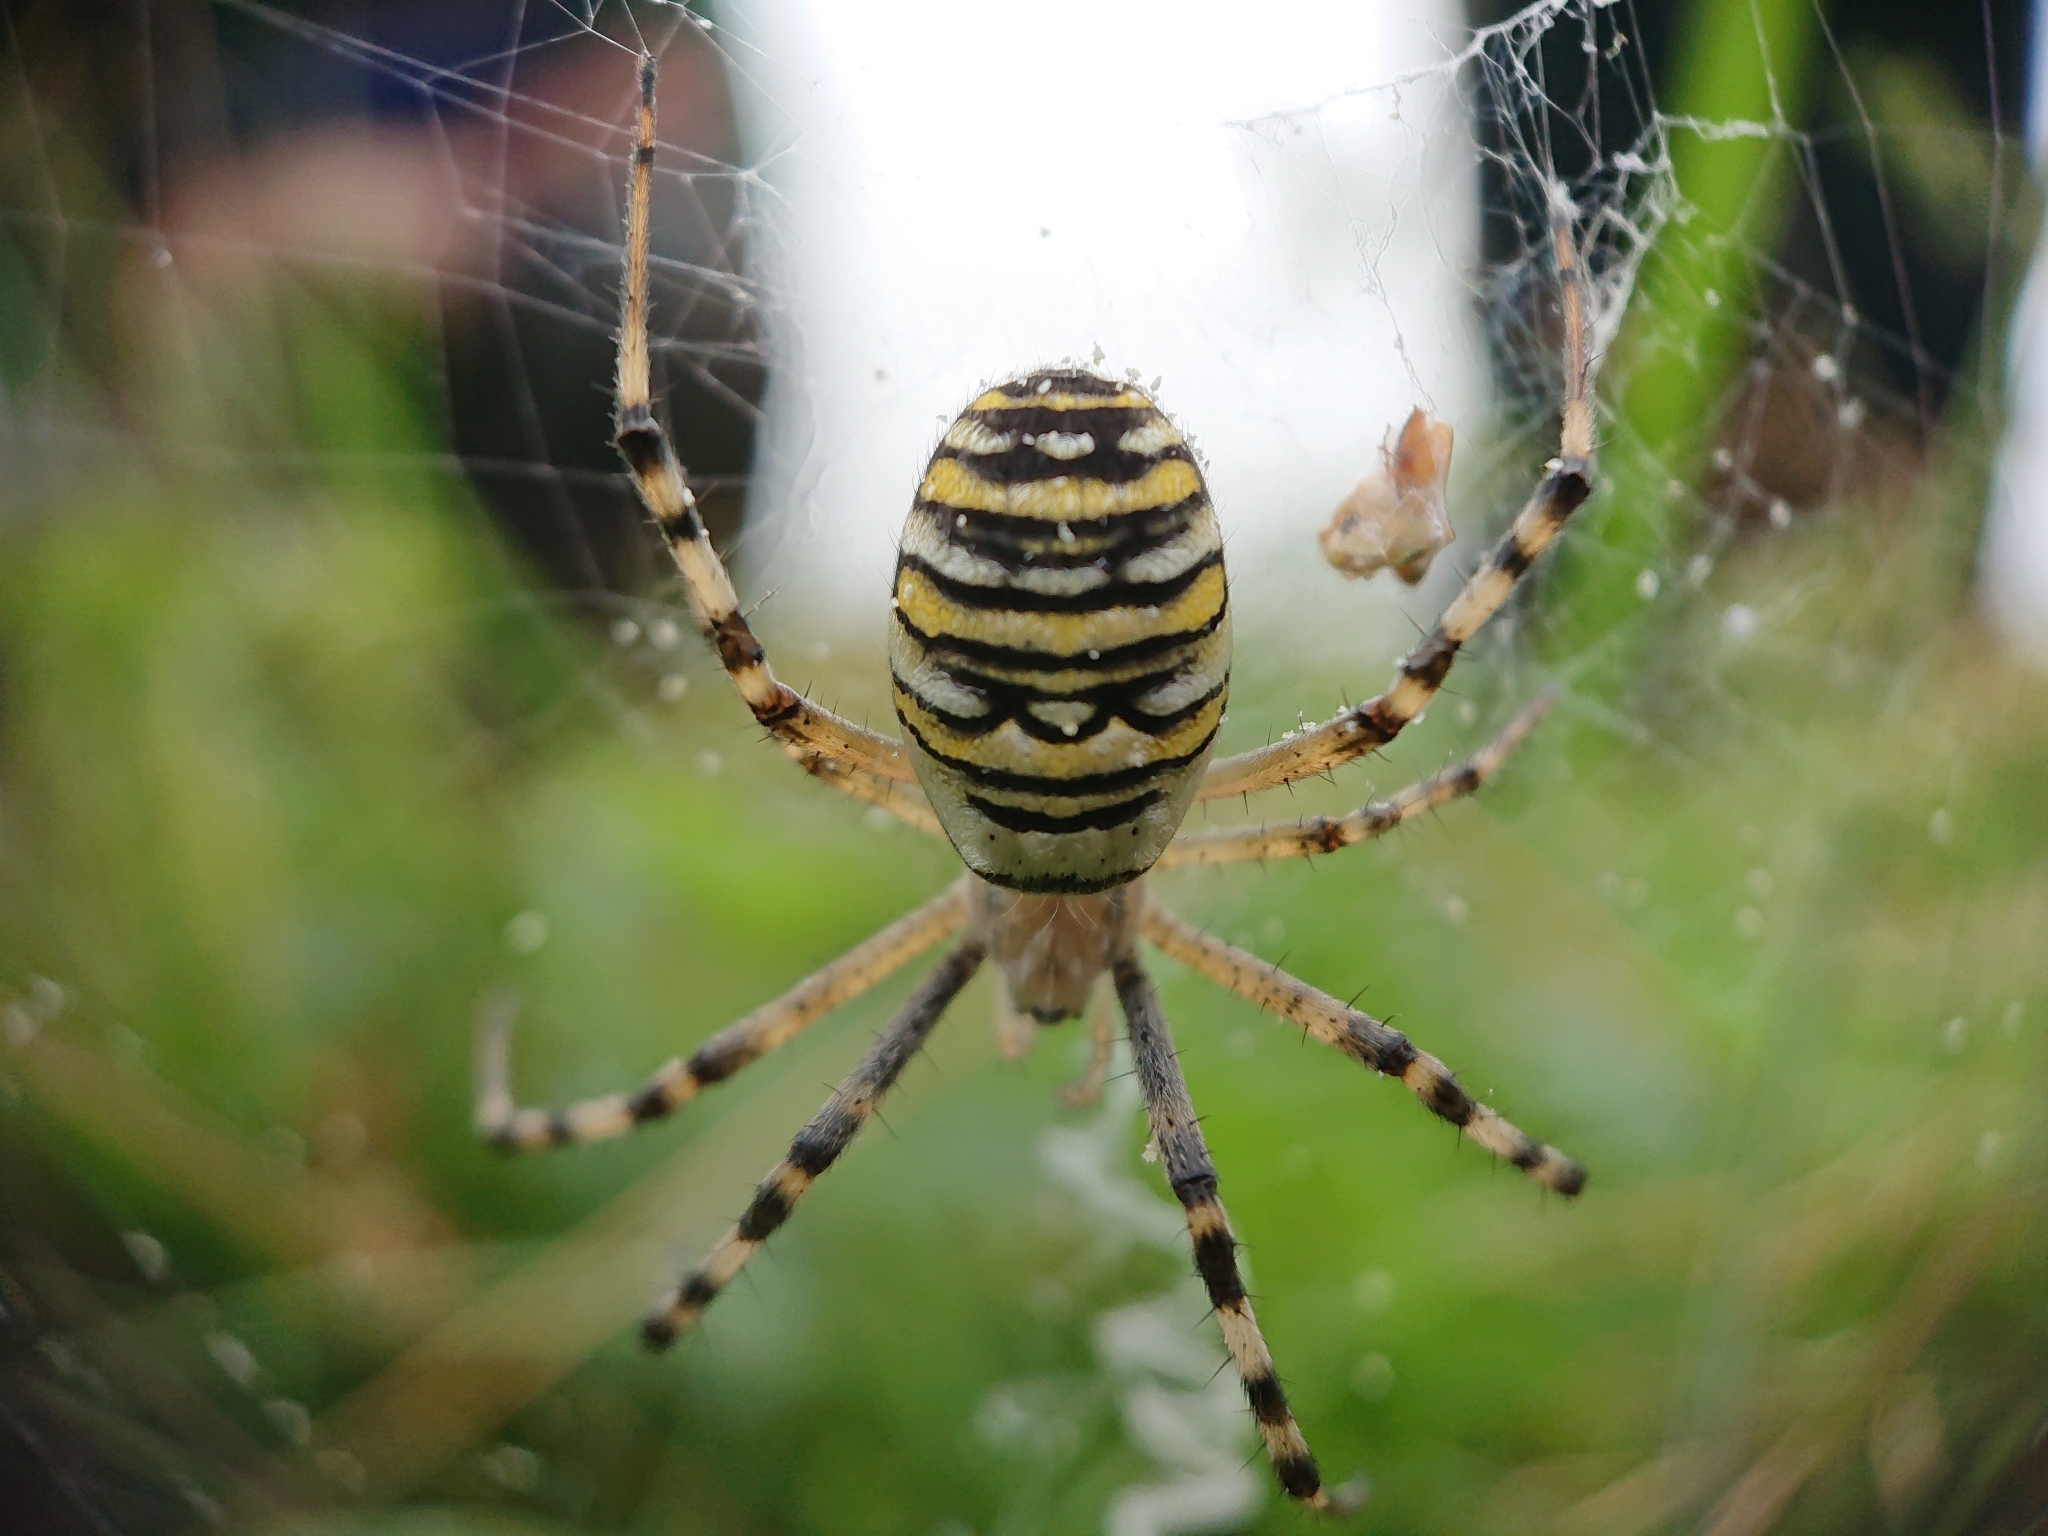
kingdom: Animalia
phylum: Arthropoda
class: Arachnida
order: Araneae
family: Araneidae
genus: Argiope
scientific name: Argiope bruennichi
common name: Wasp spider
